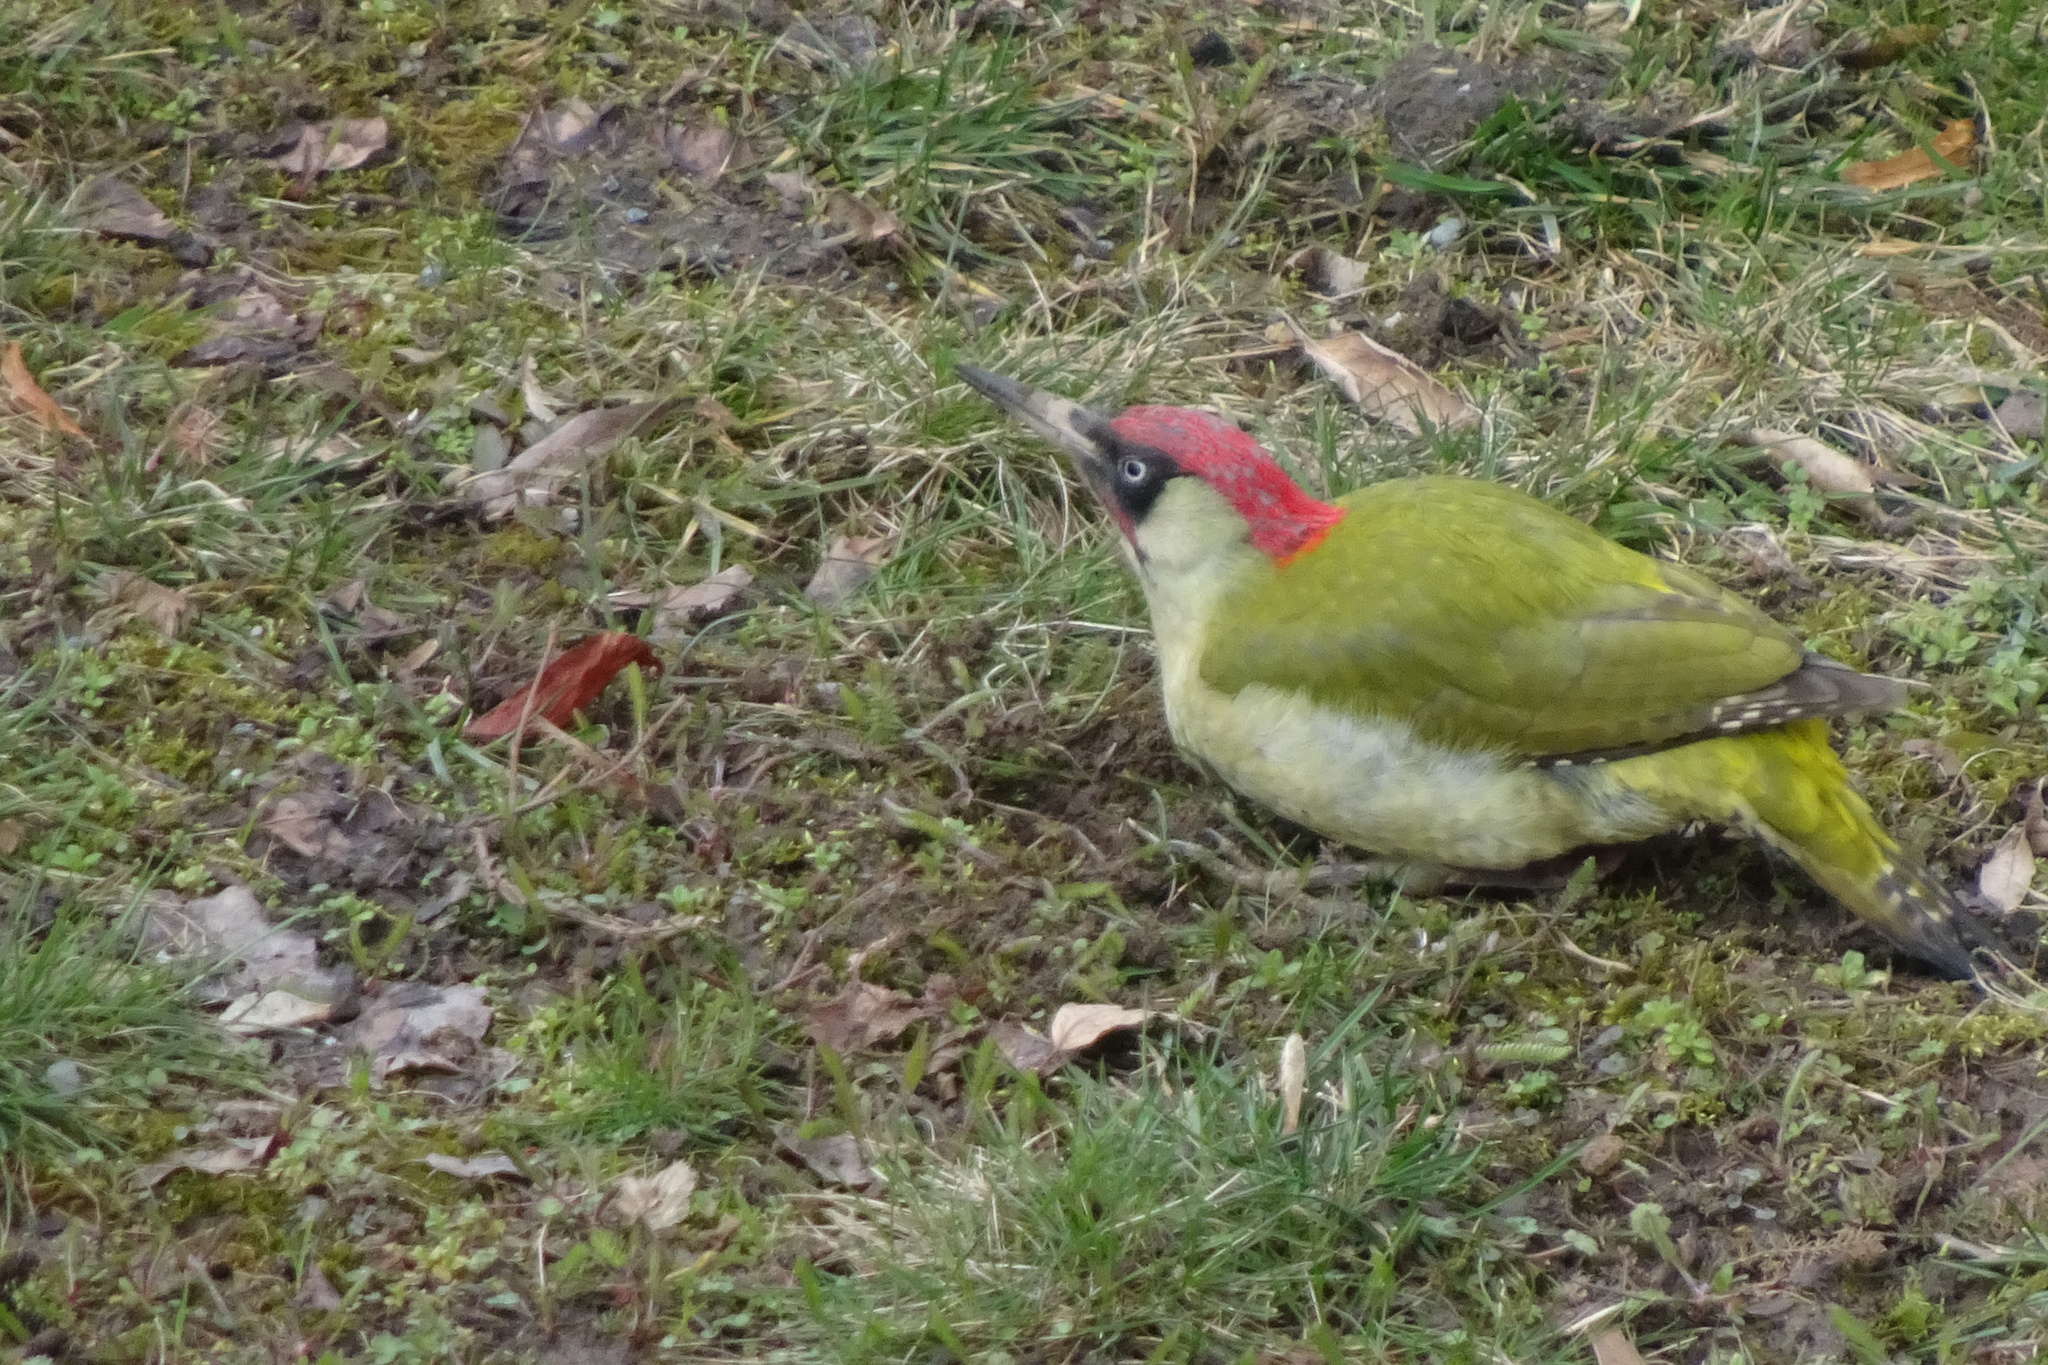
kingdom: Animalia
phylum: Chordata
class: Aves
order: Piciformes
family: Picidae
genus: Picus
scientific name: Picus viridis
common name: European green woodpecker
